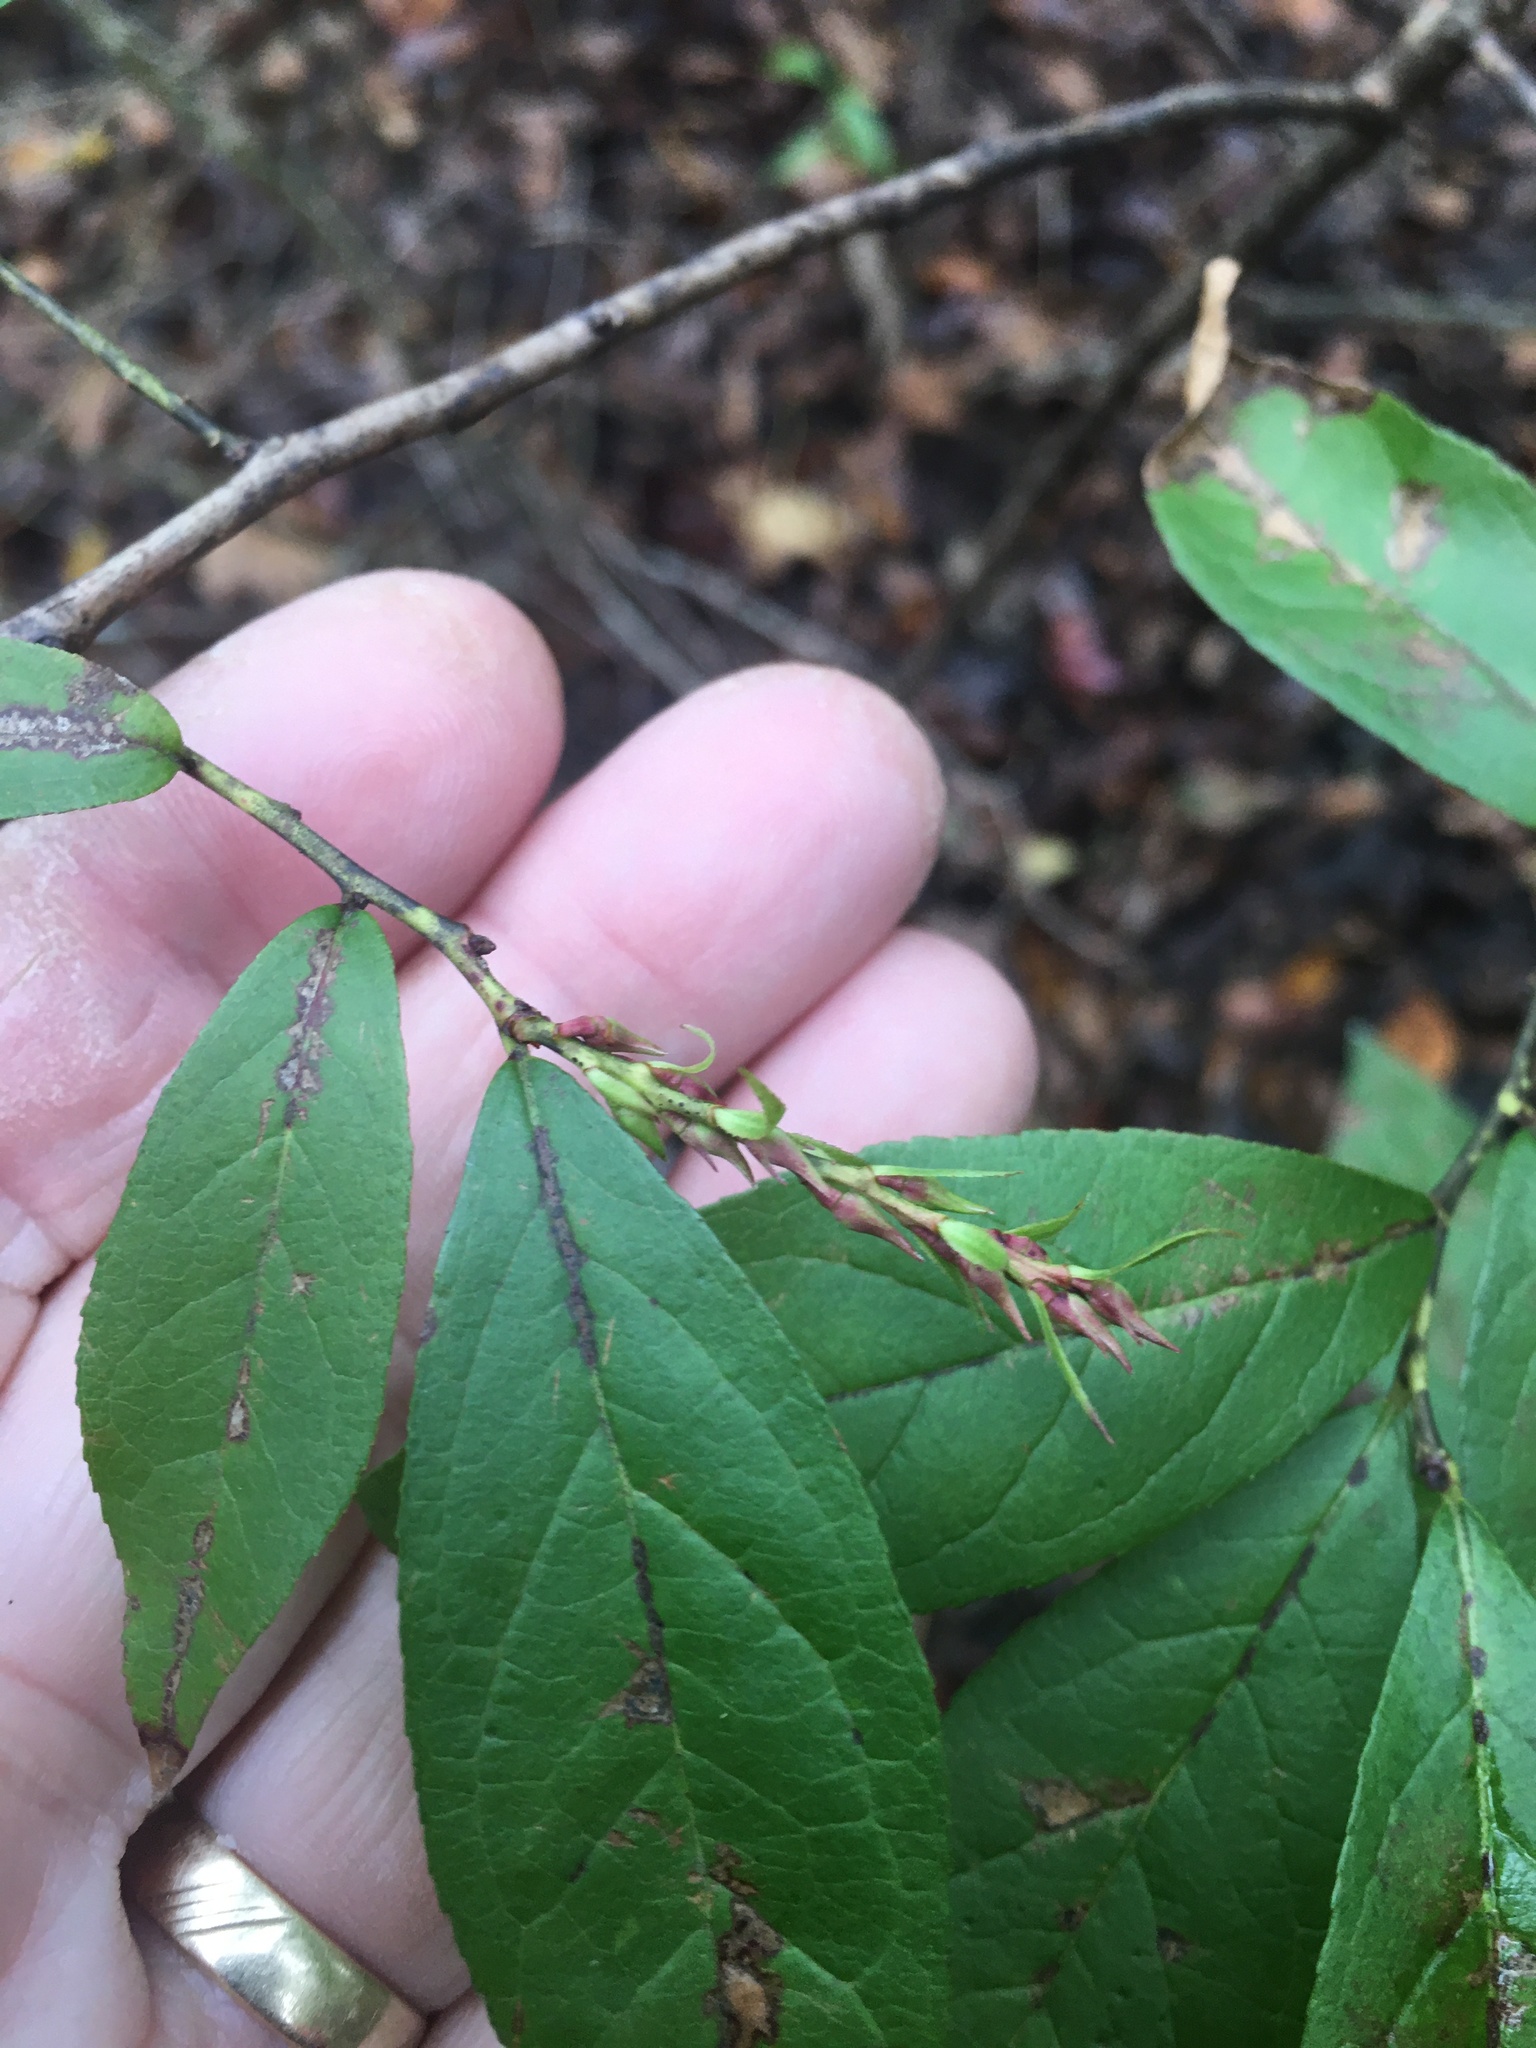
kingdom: Plantae
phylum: Tracheophyta
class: Magnoliopsida
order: Ericales
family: Ericaceae
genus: Eubotrys
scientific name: Eubotrys racemosa
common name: Fetterbush
